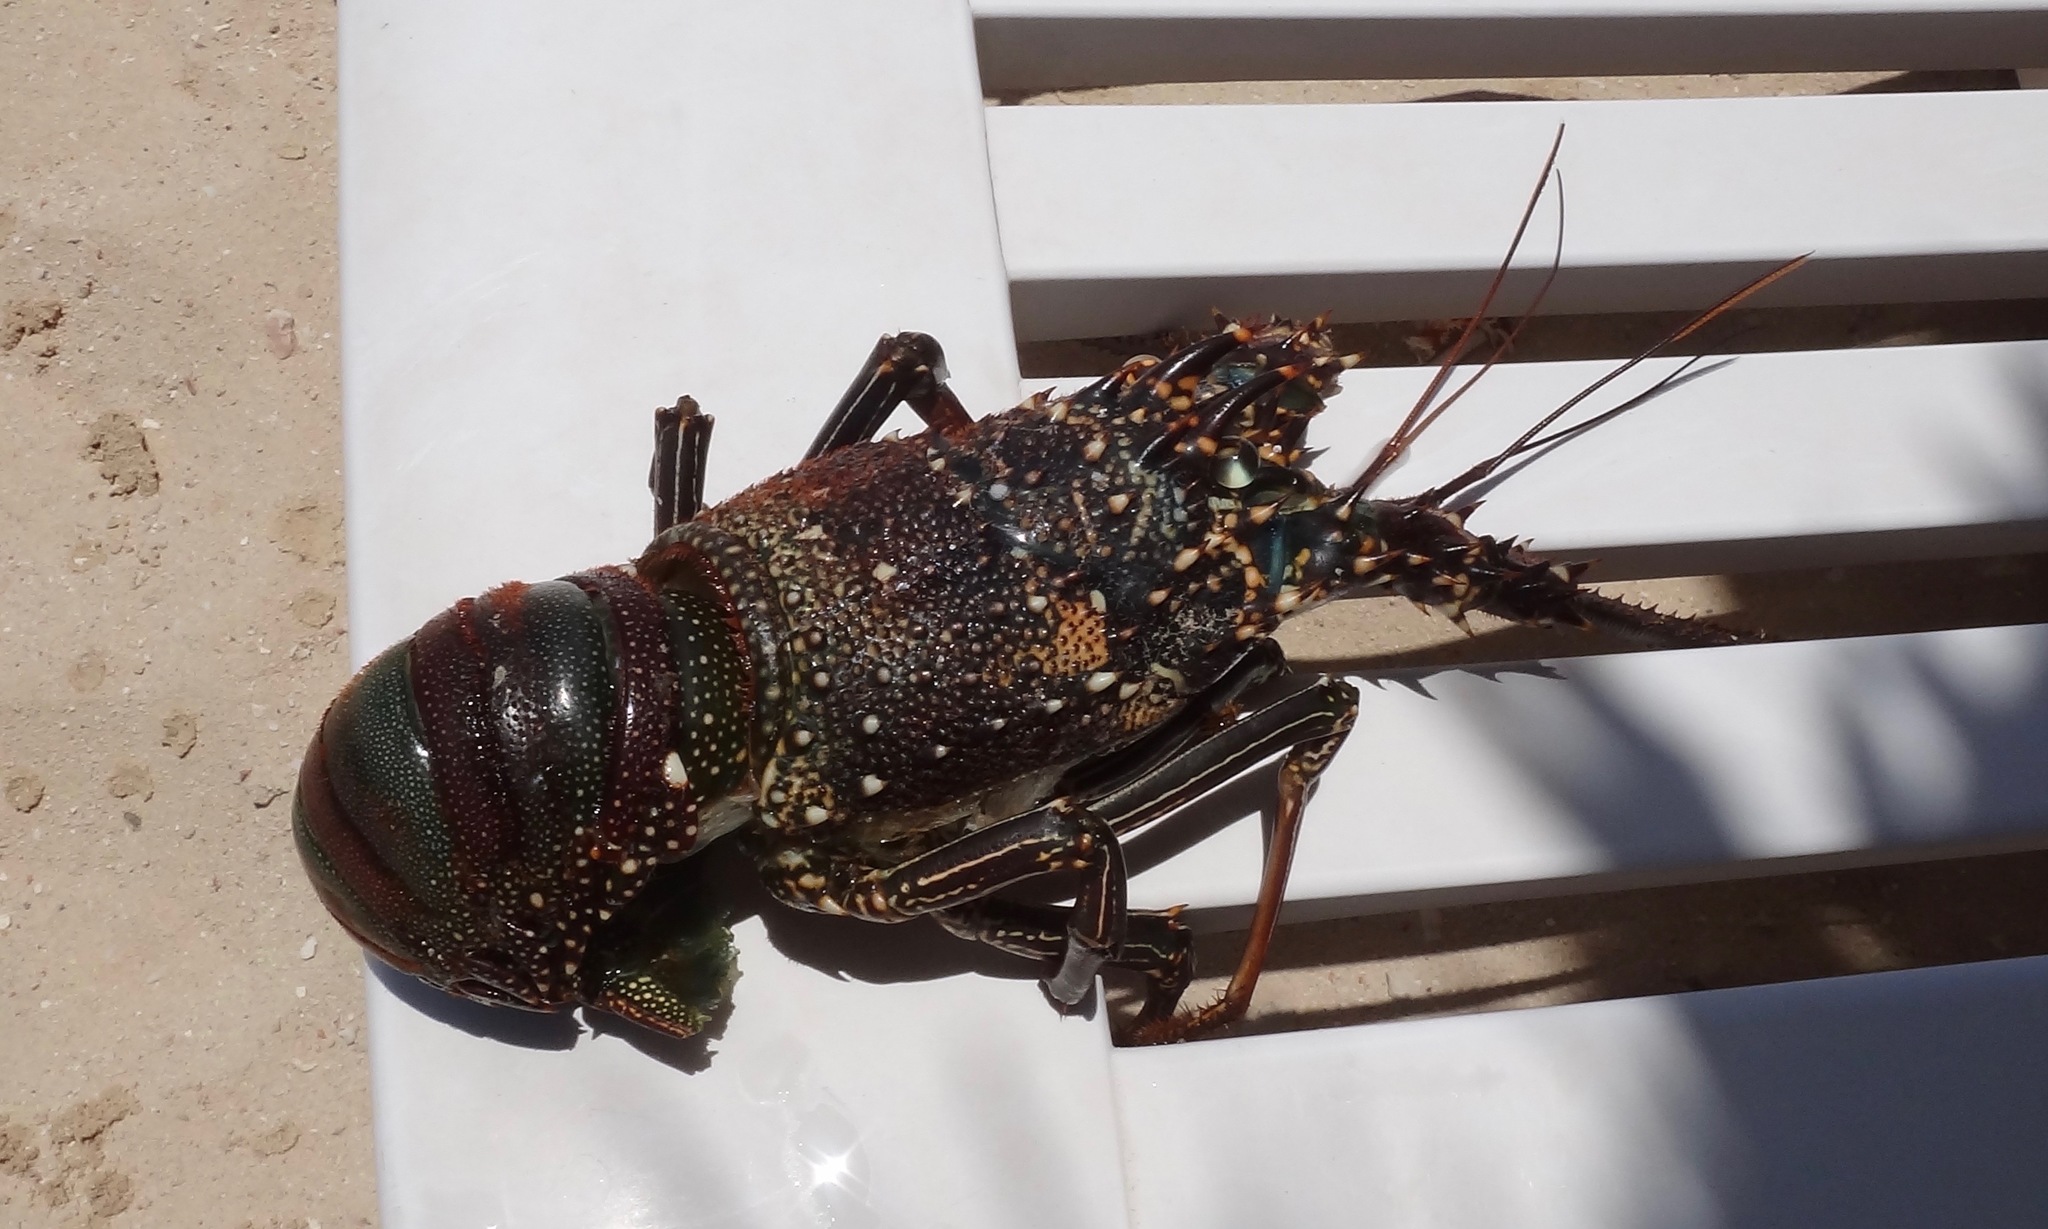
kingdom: Animalia
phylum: Arthropoda
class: Malacostraca
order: Decapoda
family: Palinuridae
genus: Panulirus
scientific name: Panulirus penicillatus
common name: Pronghorn spiny lobster
